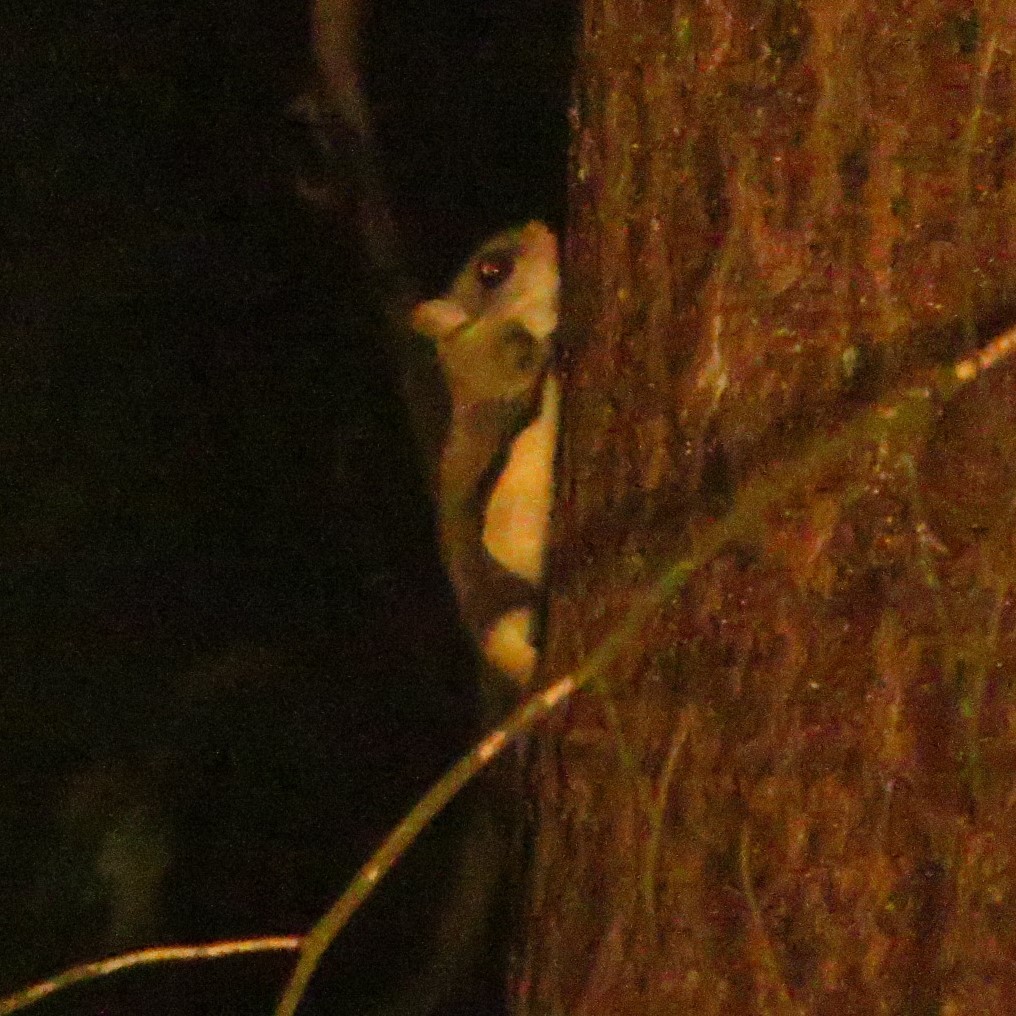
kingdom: Animalia
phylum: Chordata
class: Mammalia
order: Rodentia
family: Sciuridae
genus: Glaucomys
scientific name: Glaucomys volans
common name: Southern flying squirrel
